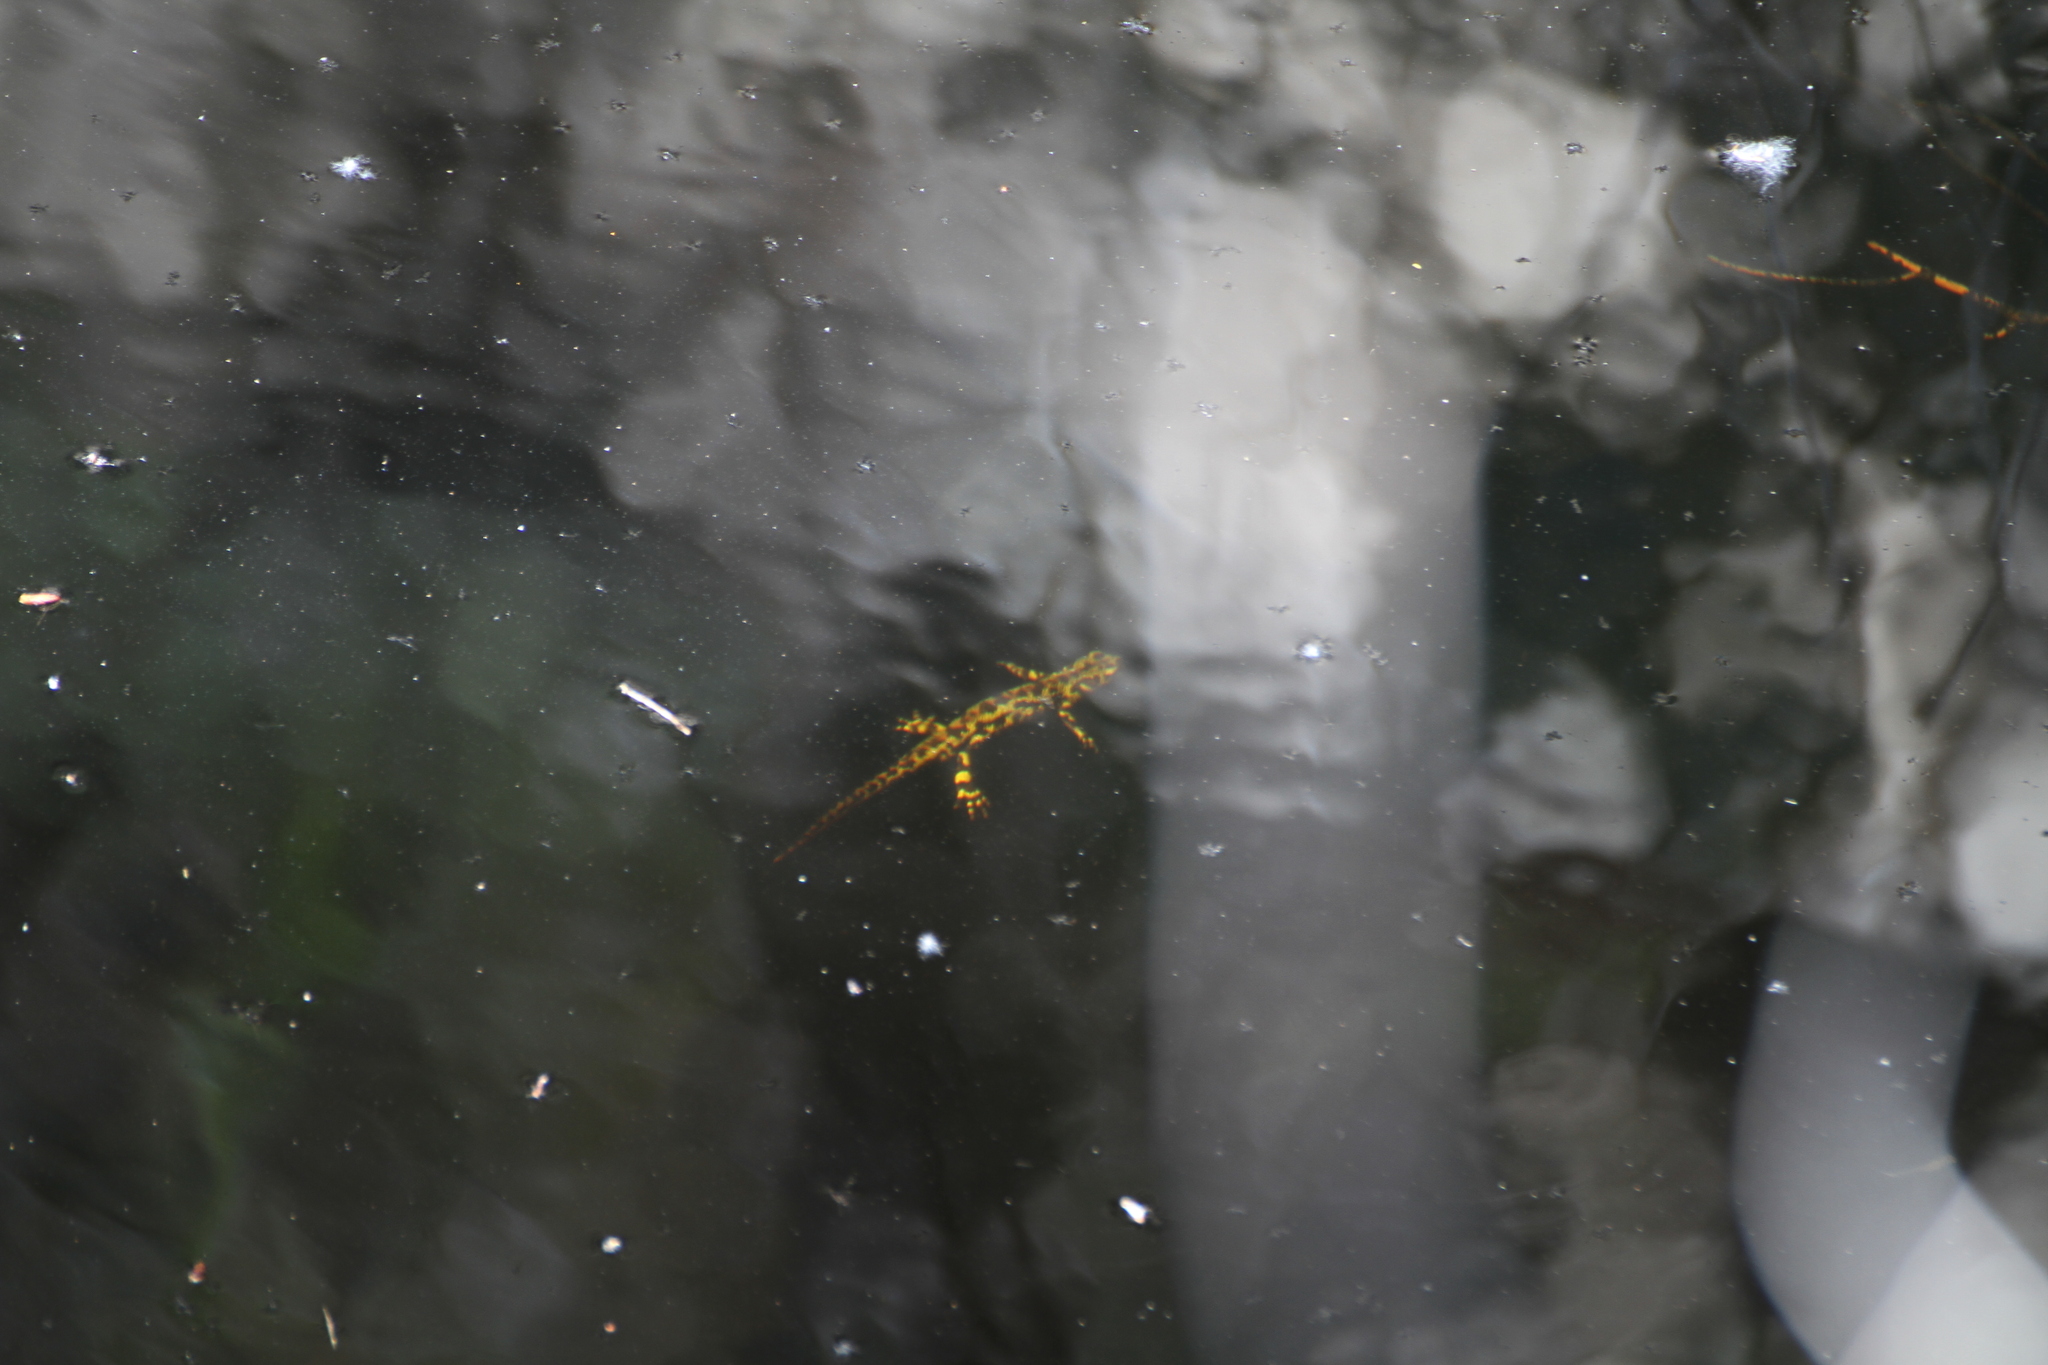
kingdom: Animalia
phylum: Chordata
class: Amphibia
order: Caudata
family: Salamandridae
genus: Triturus
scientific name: Triturus marmoratus
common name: Marbled newt
